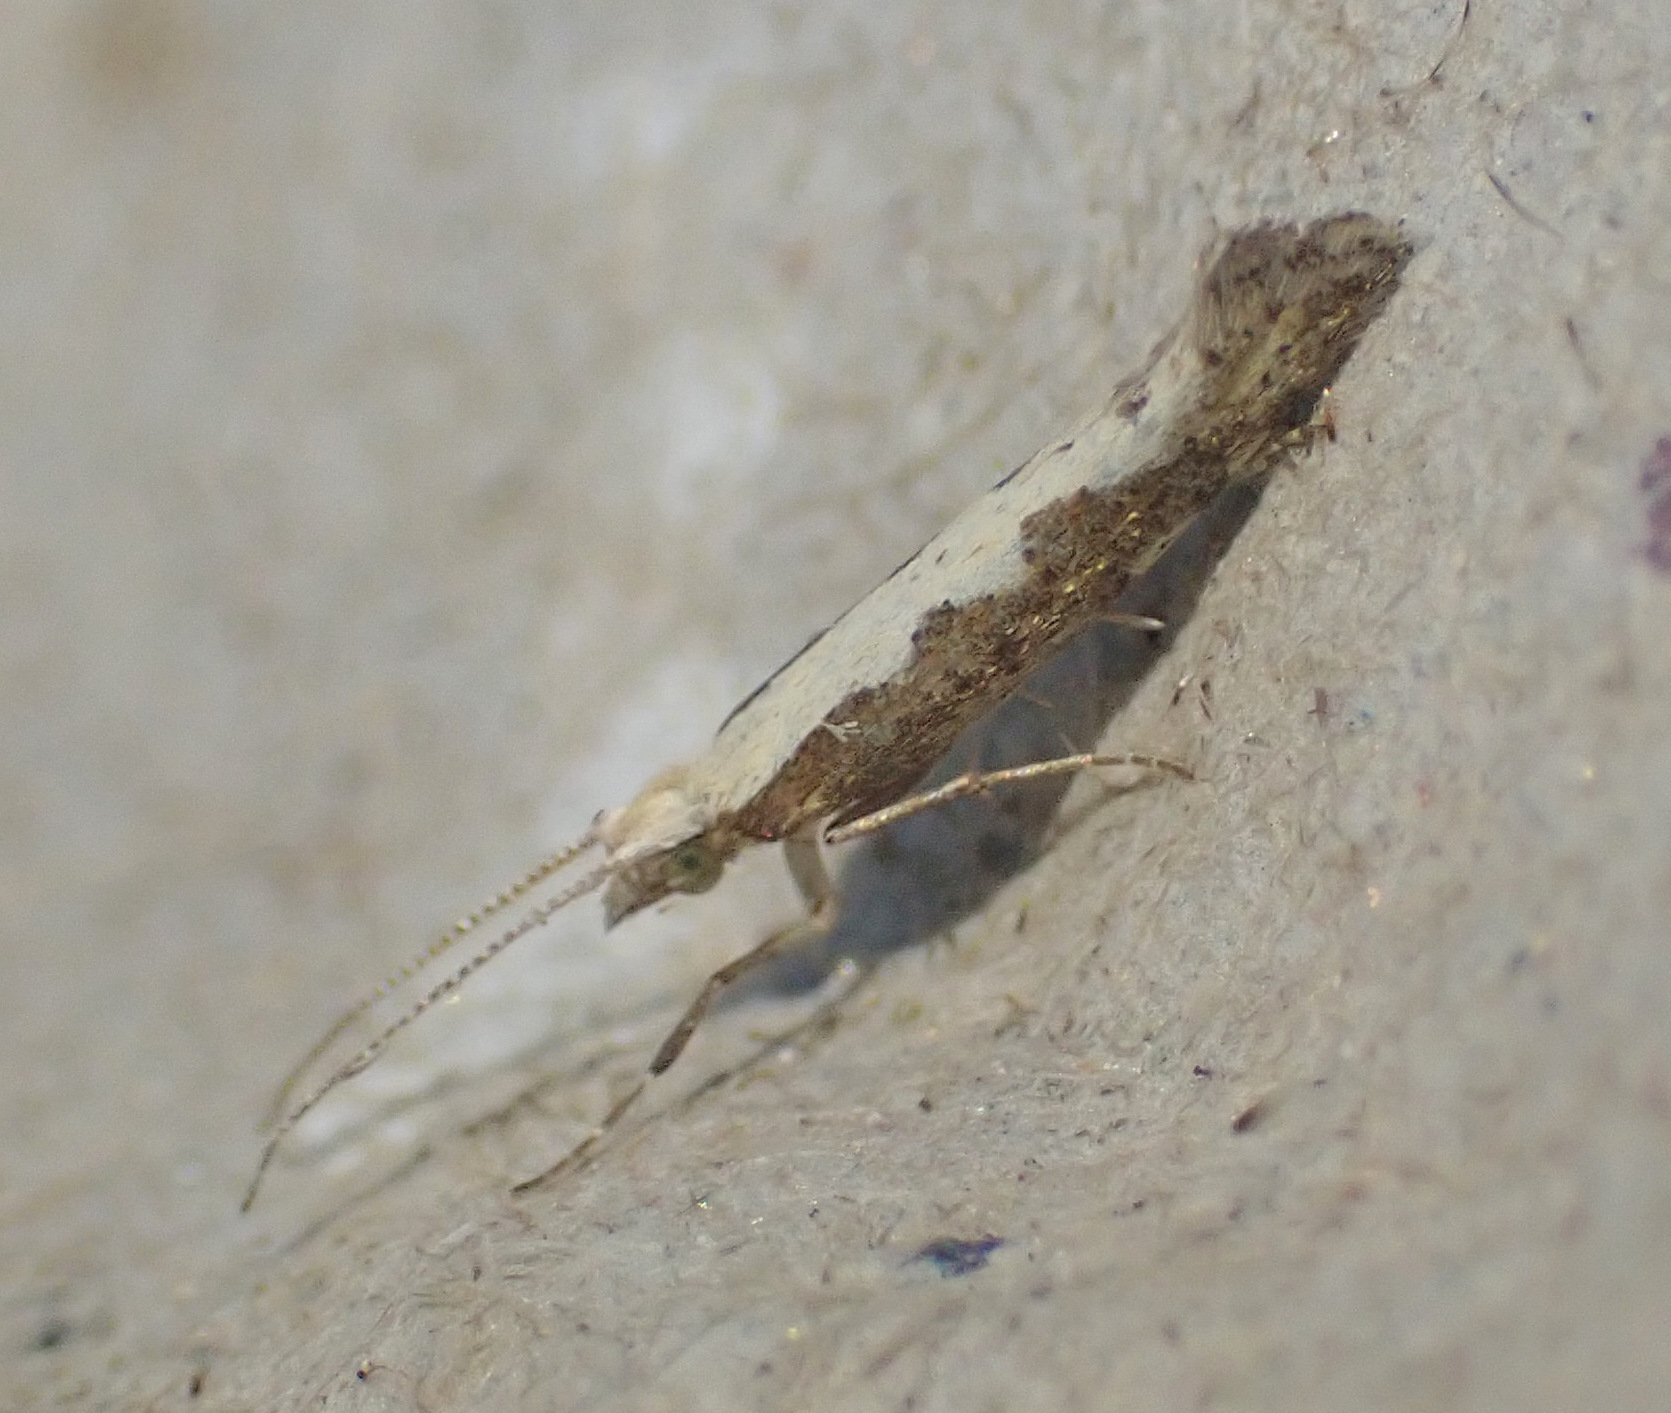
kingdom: Animalia
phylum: Arthropoda
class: Insecta
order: Lepidoptera
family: Plutellidae
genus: Plutella
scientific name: Plutella xylostella
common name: Diamond-back moth
